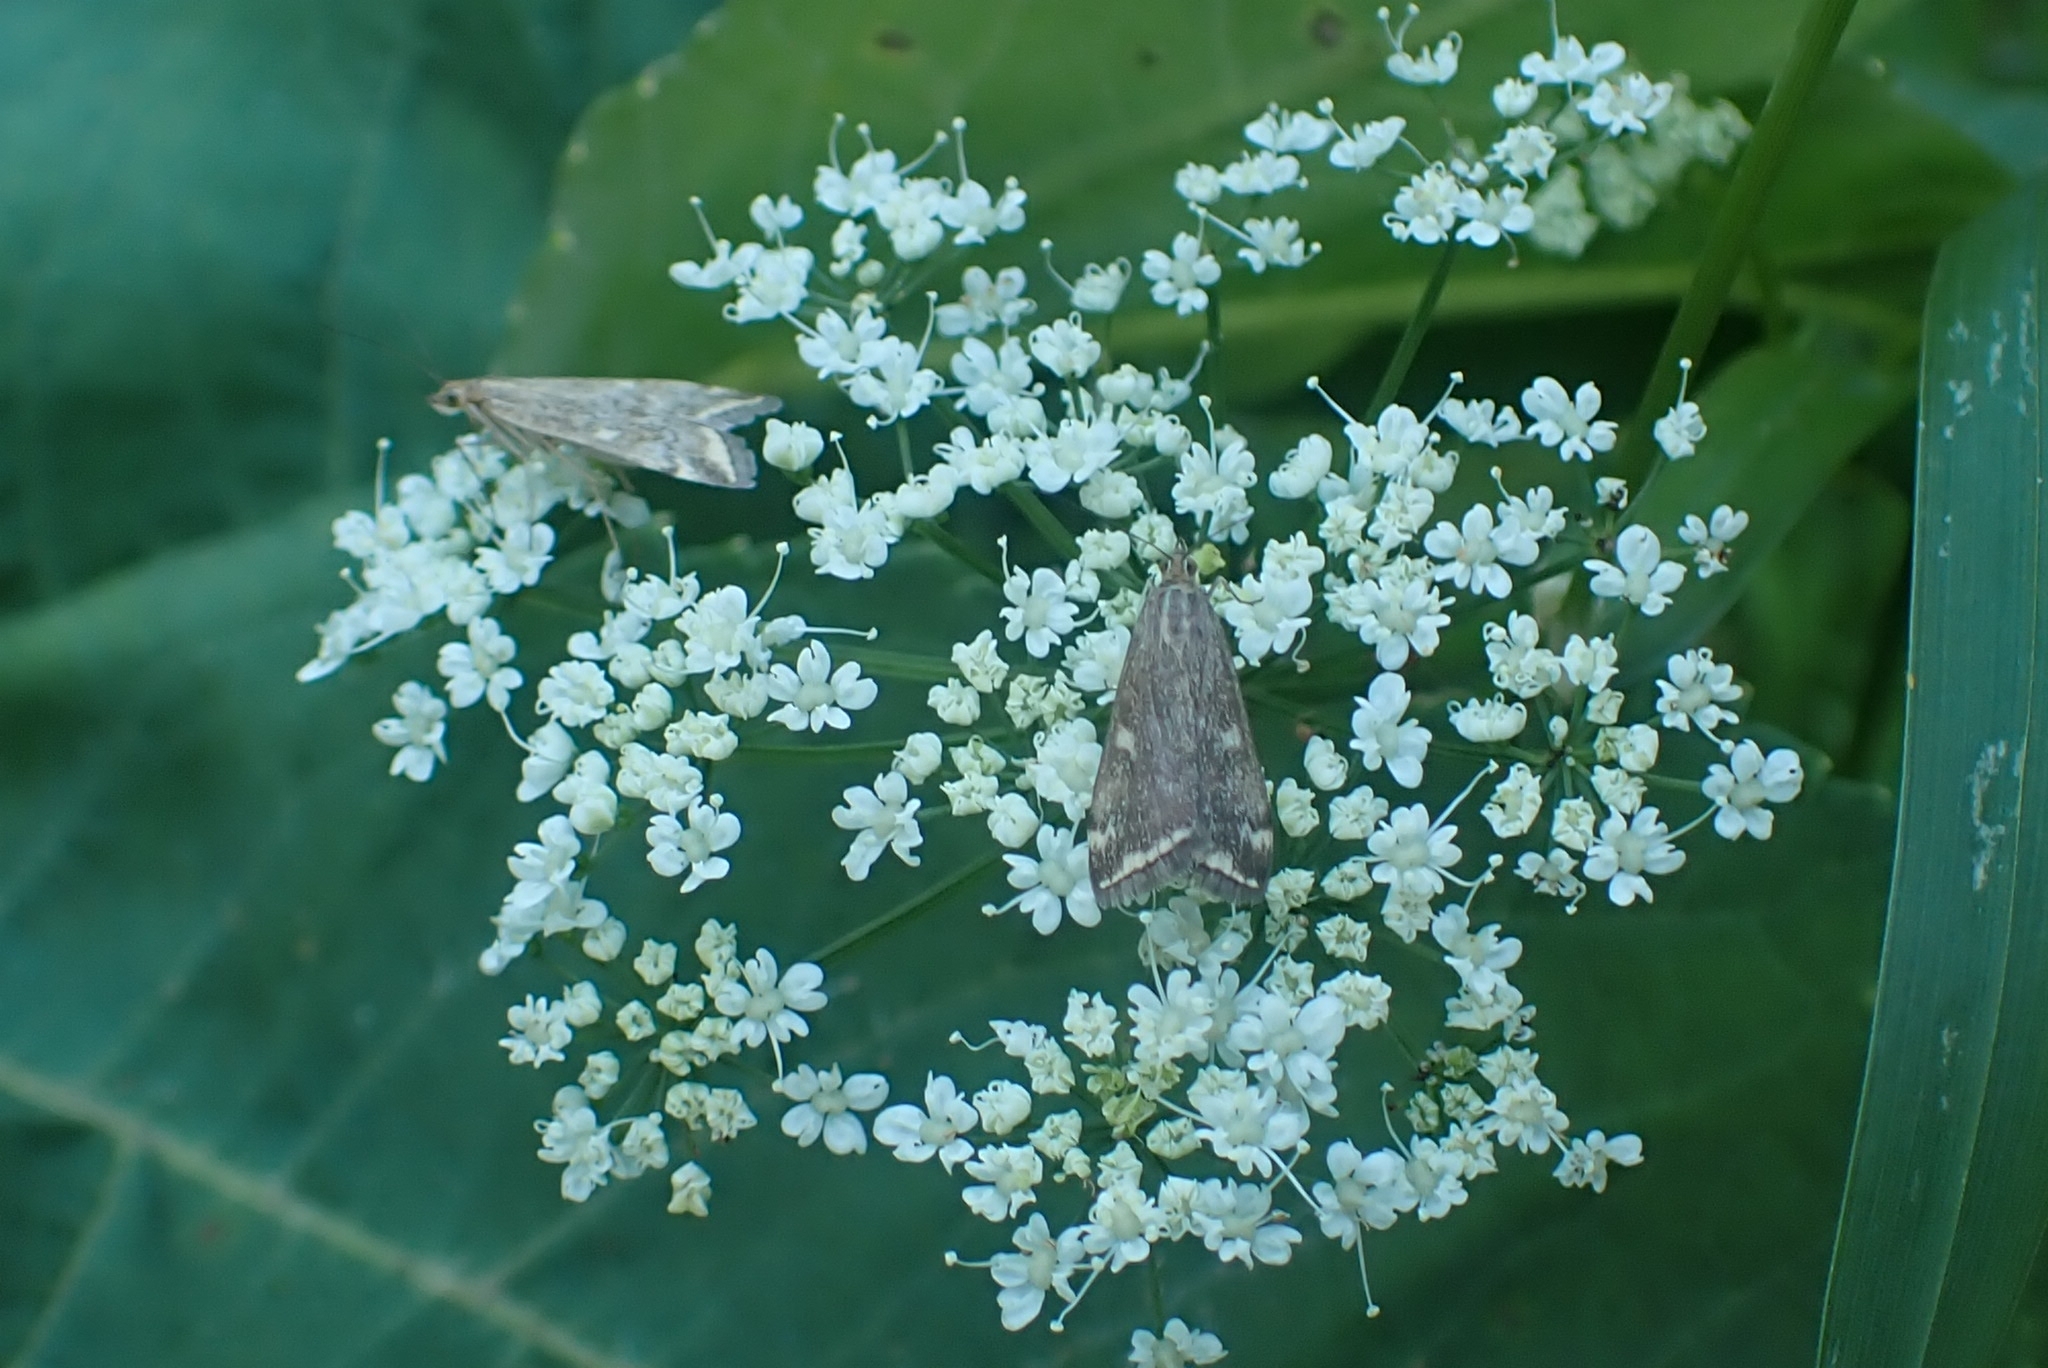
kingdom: Animalia
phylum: Arthropoda
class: Insecta
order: Lepidoptera
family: Crambidae
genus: Loxostege
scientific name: Loxostege sticticalis
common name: Crambid moth
